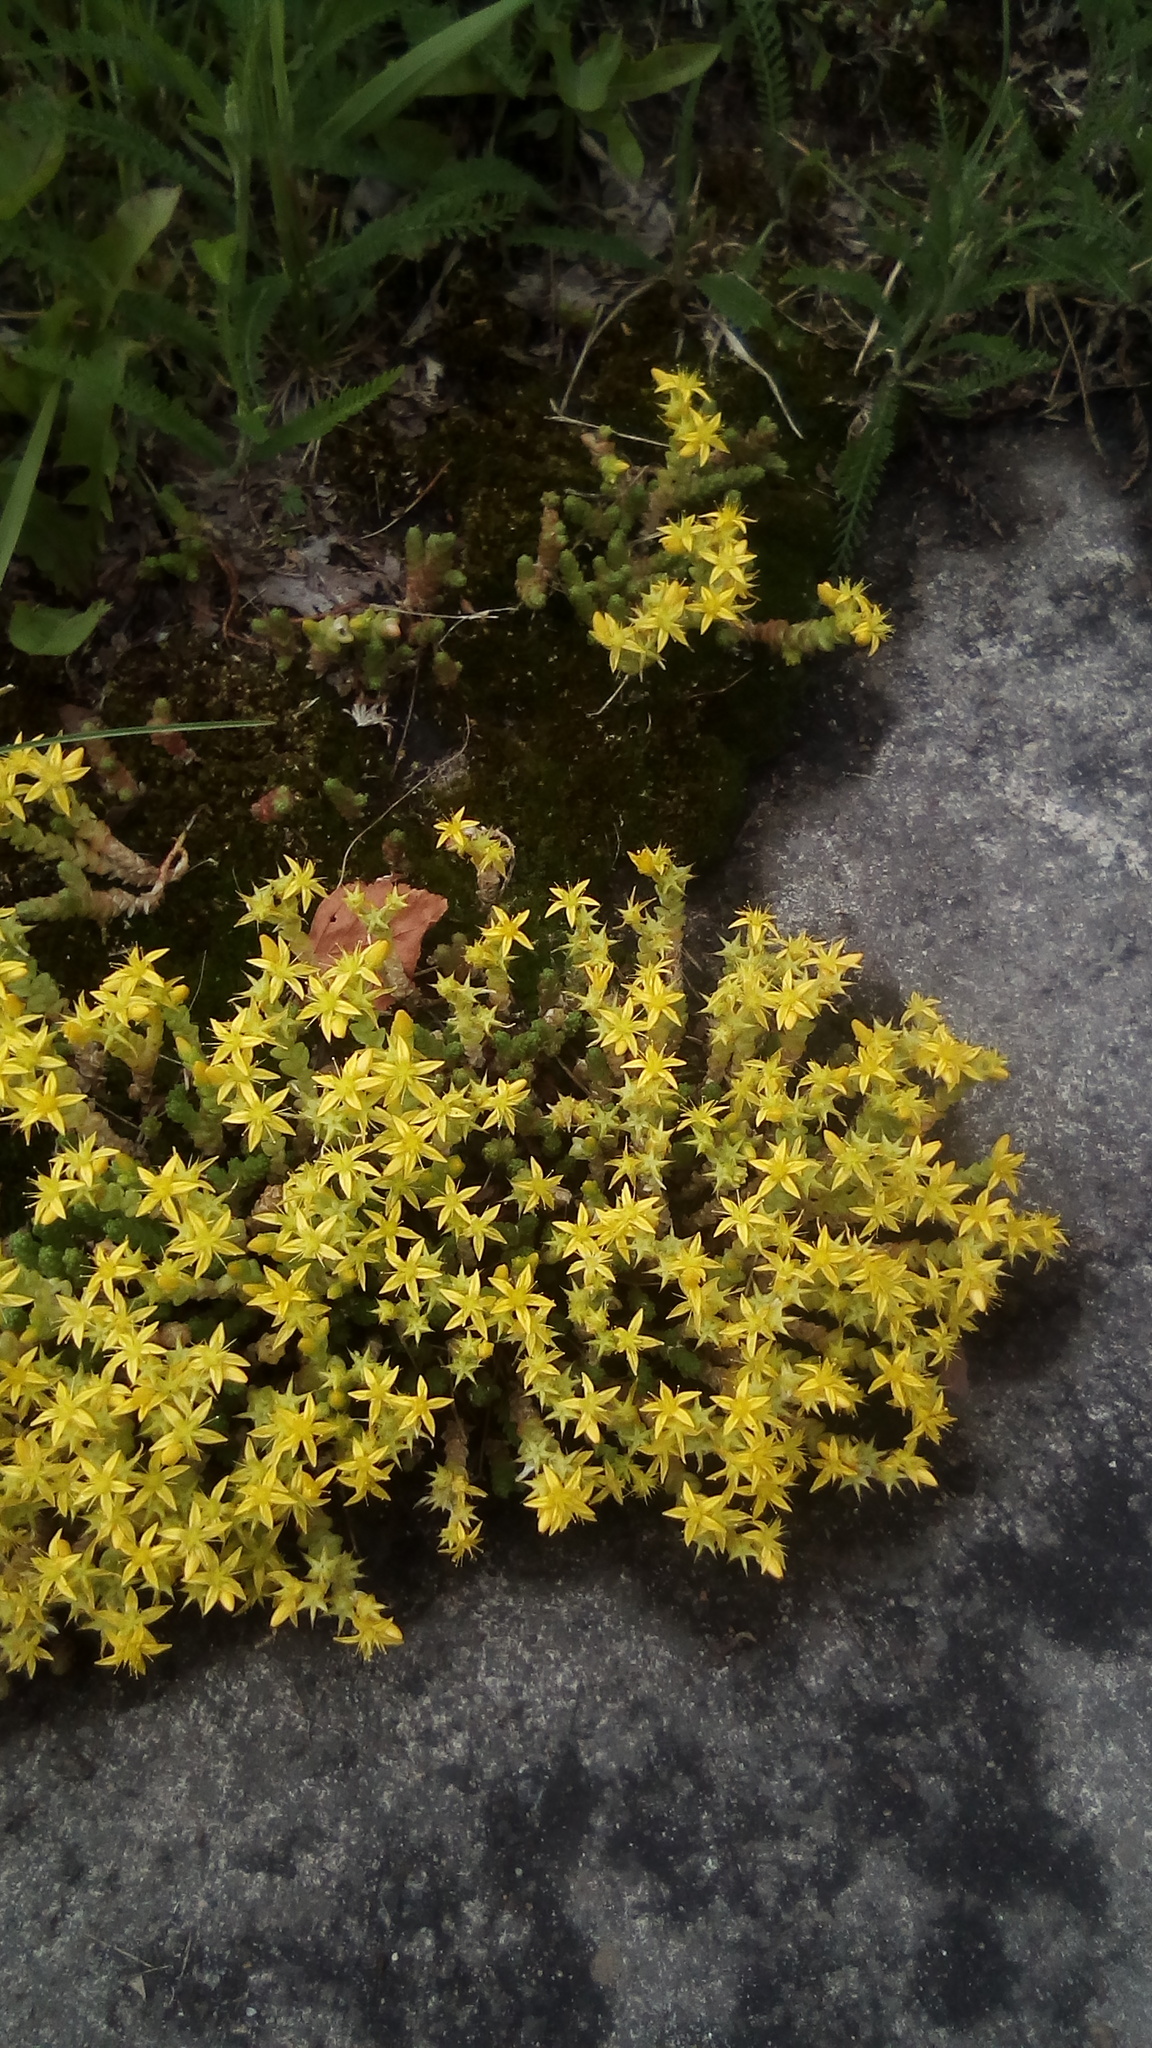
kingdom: Plantae
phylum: Tracheophyta
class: Magnoliopsida
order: Saxifragales
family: Crassulaceae
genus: Sedum
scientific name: Sedum acre
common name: Biting stonecrop
